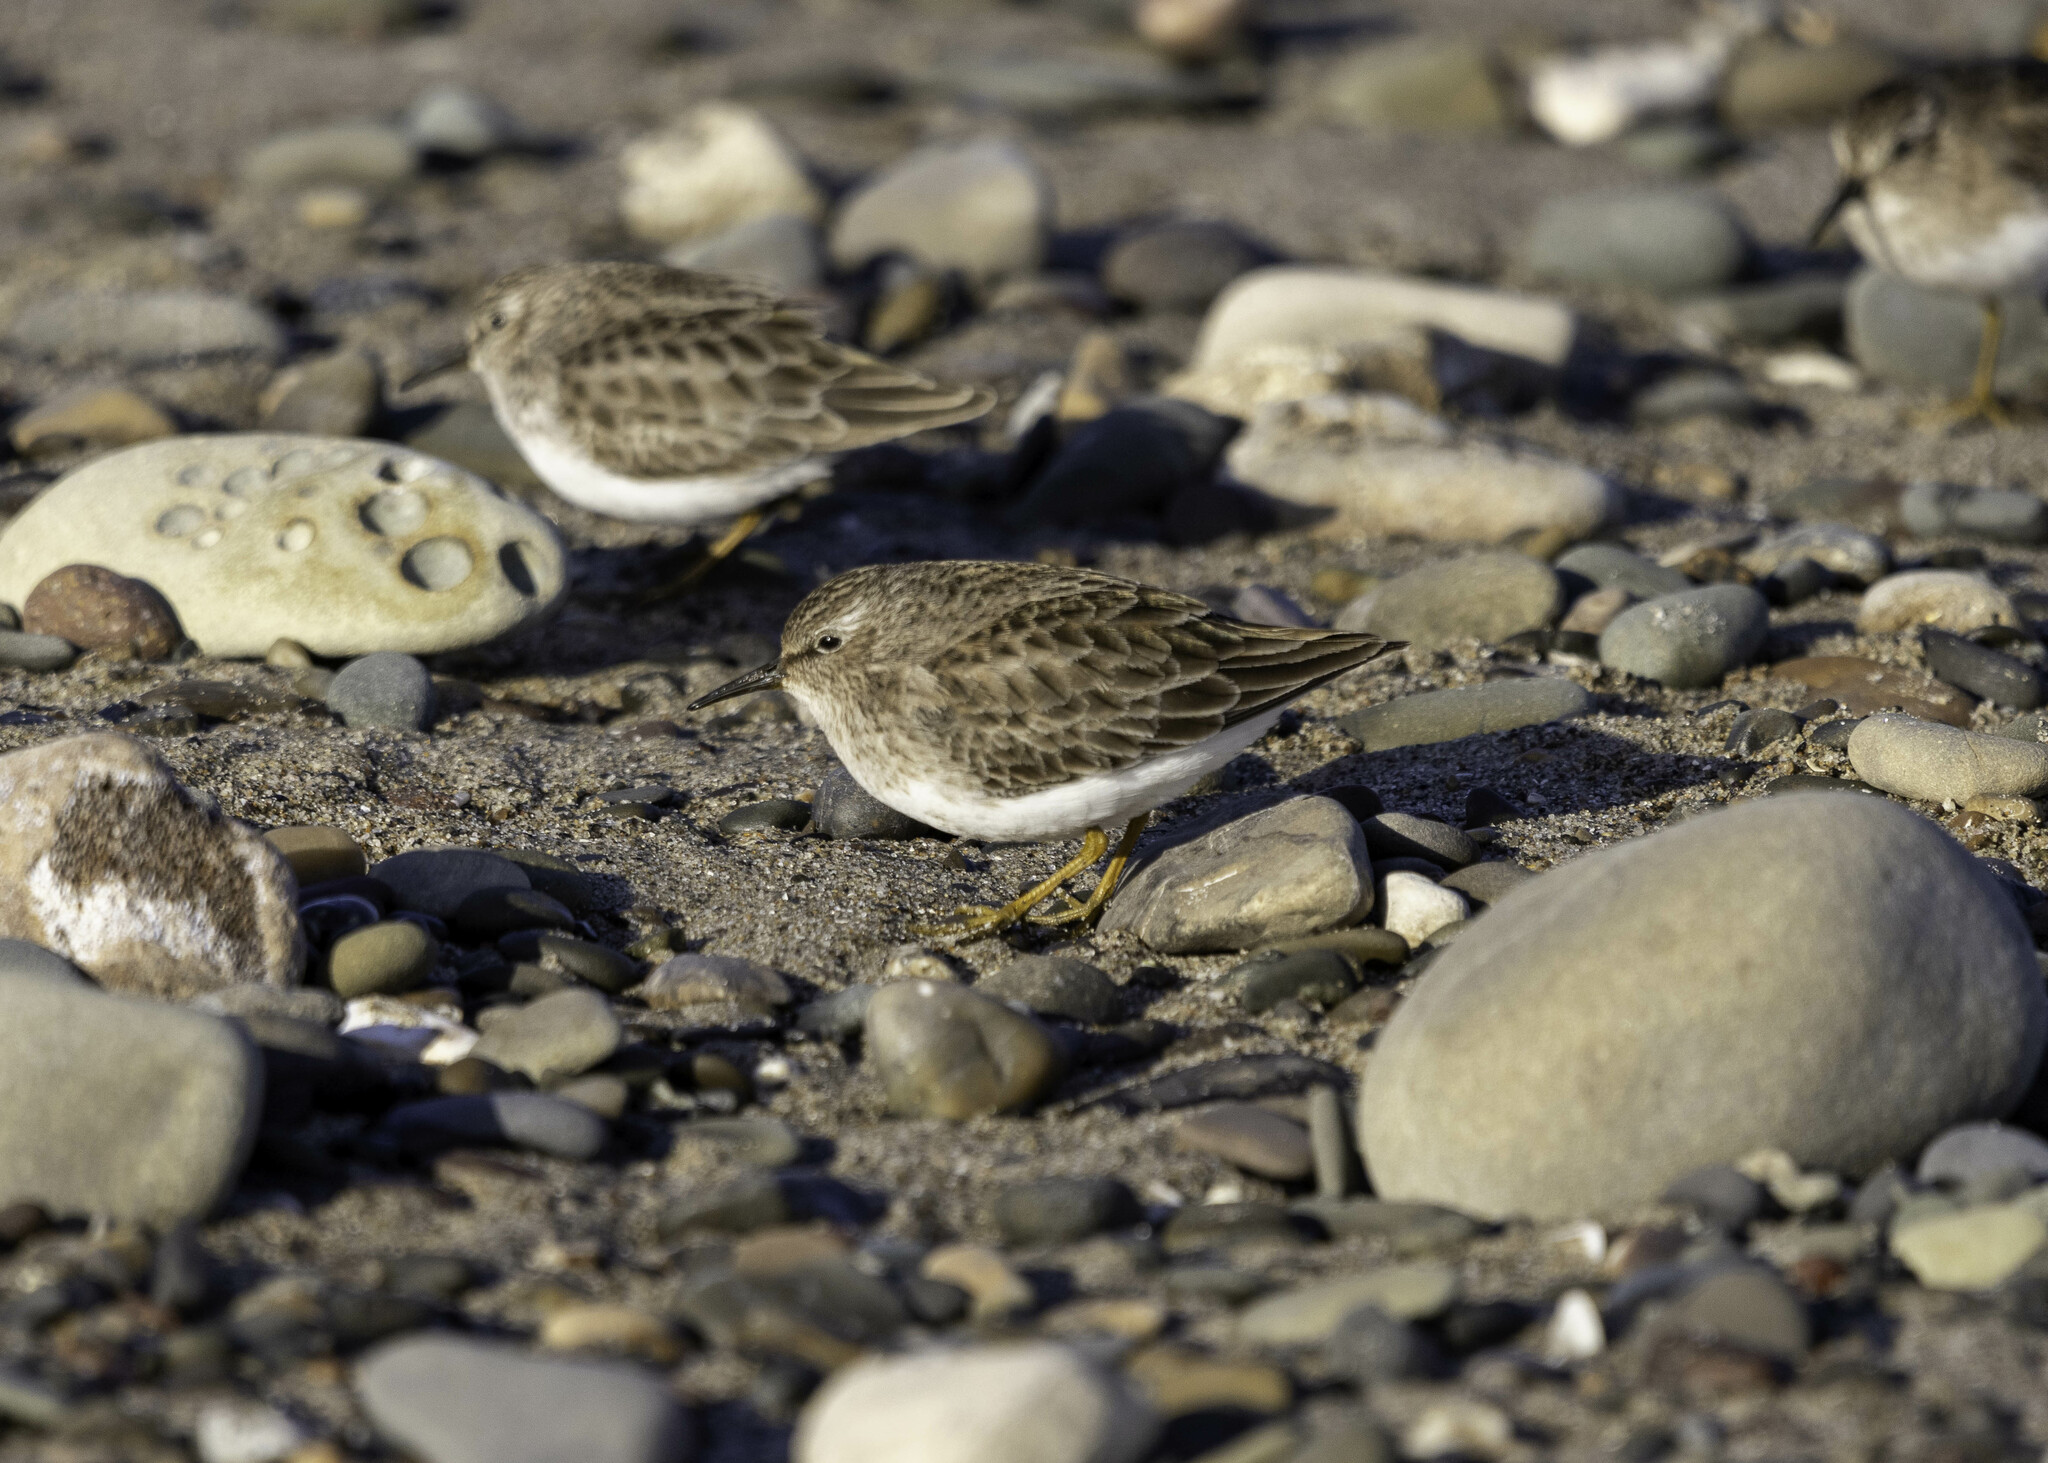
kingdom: Animalia
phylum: Chordata
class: Aves
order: Charadriiformes
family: Scolopacidae
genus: Calidris
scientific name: Calidris minutilla
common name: Least sandpiper
